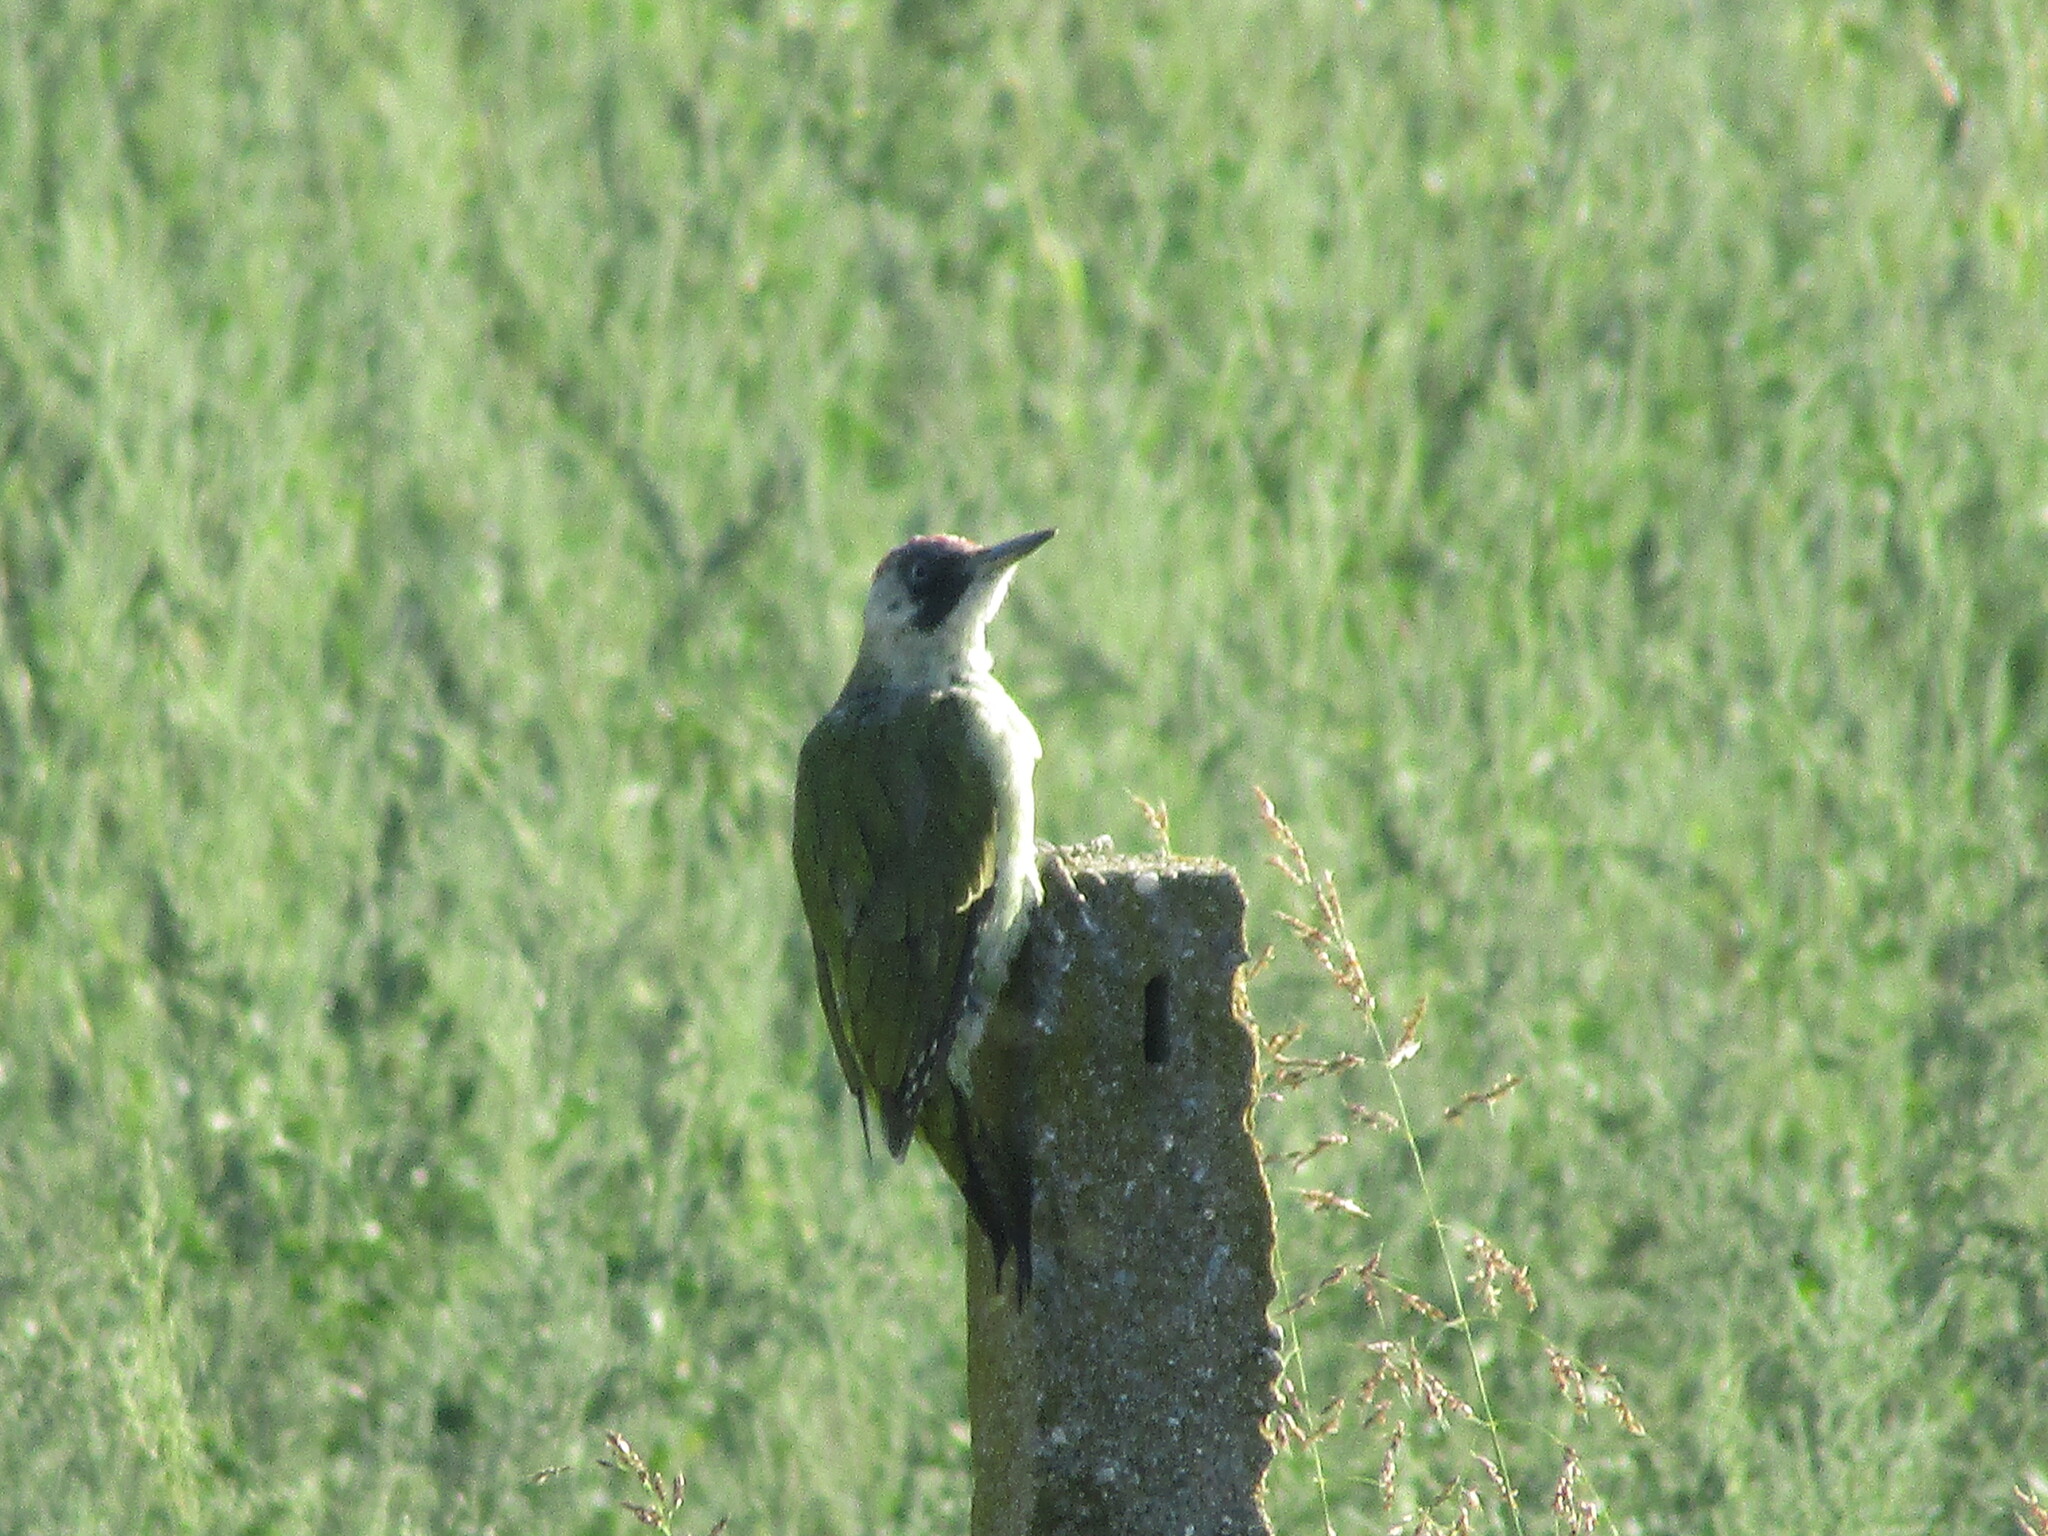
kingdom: Animalia
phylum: Chordata
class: Aves
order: Piciformes
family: Picidae
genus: Picus
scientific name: Picus viridis
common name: European green woodpecker
